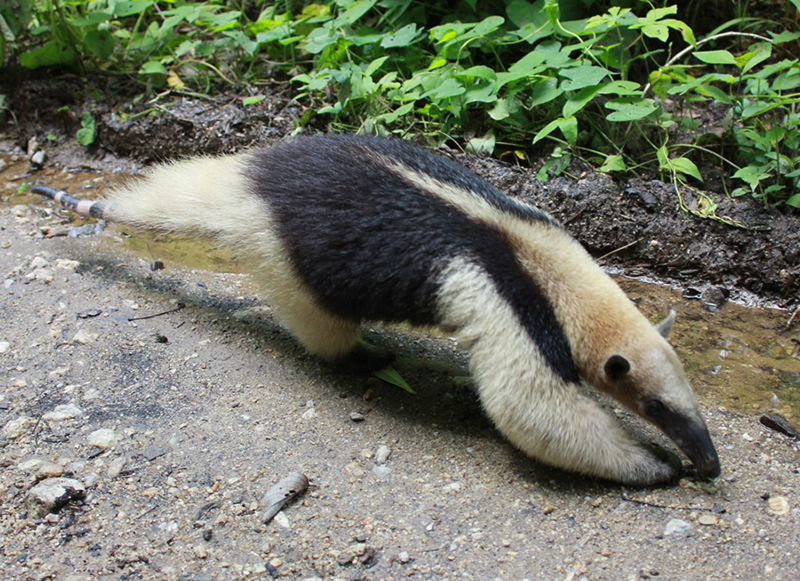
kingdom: Animalia
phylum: Chordata
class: Mammalia
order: Pilosa
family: Myrmecophagidae
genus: Tamandua
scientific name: Tamandua mexicana
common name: Northern tamandua
